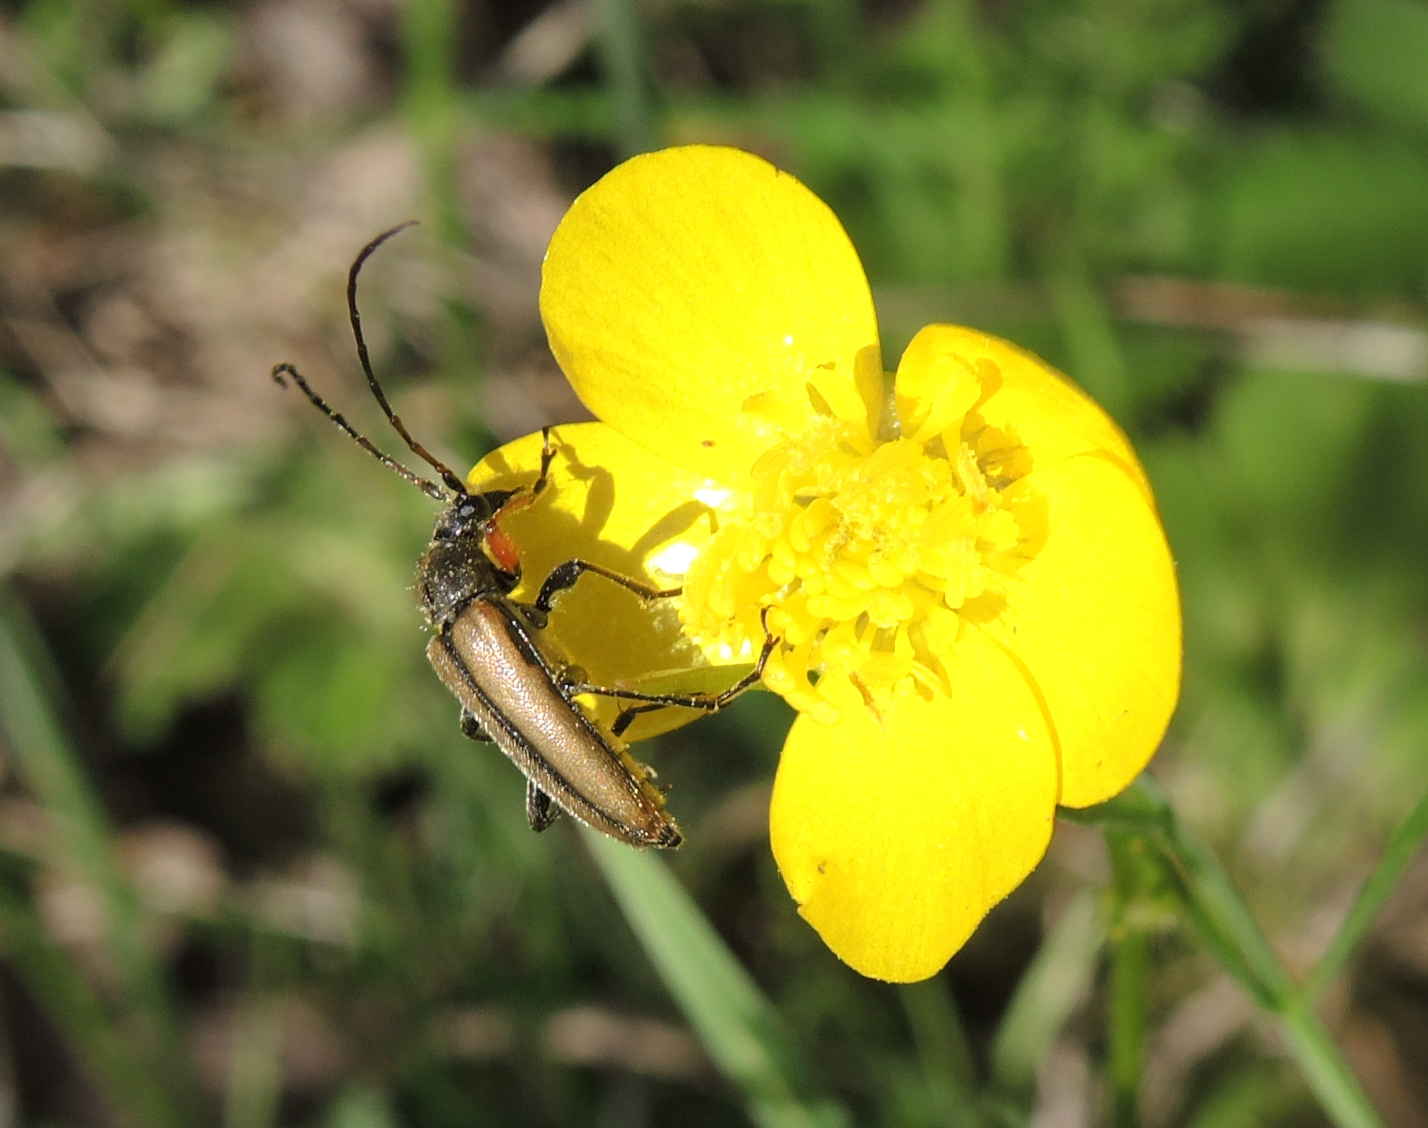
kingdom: Animalia
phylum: Arthropoda
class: Insecta
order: Coleoptera
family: Cerambycidae
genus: Cortodera
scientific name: Cortodera flavimana
